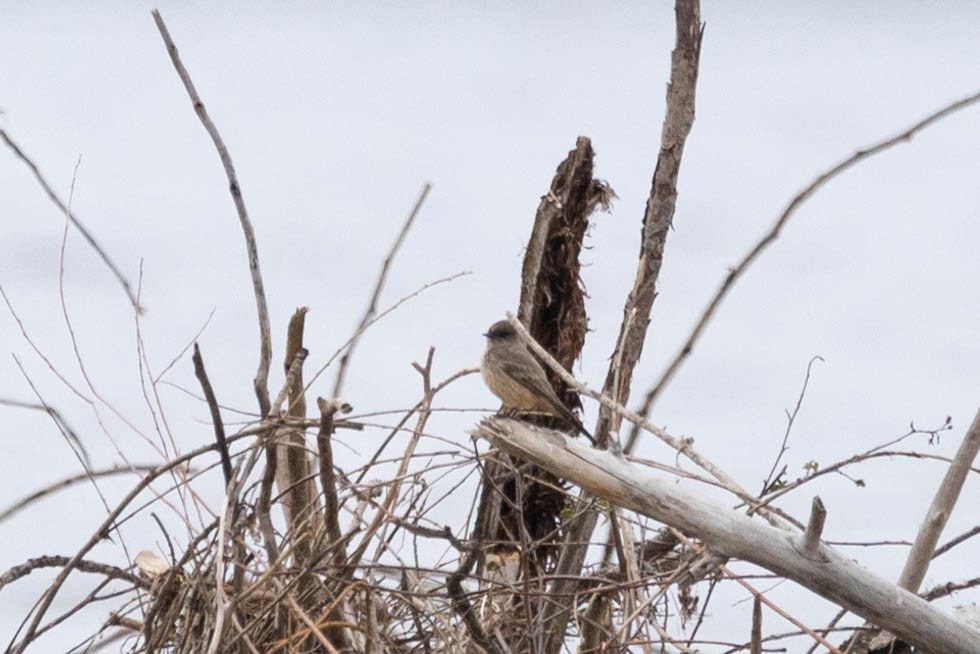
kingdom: Animalia
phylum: Chordata
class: Aves
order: Passeriformes
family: Tyrannidae
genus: Sayornis
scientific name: Sayornis saya
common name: Say's phoebe
